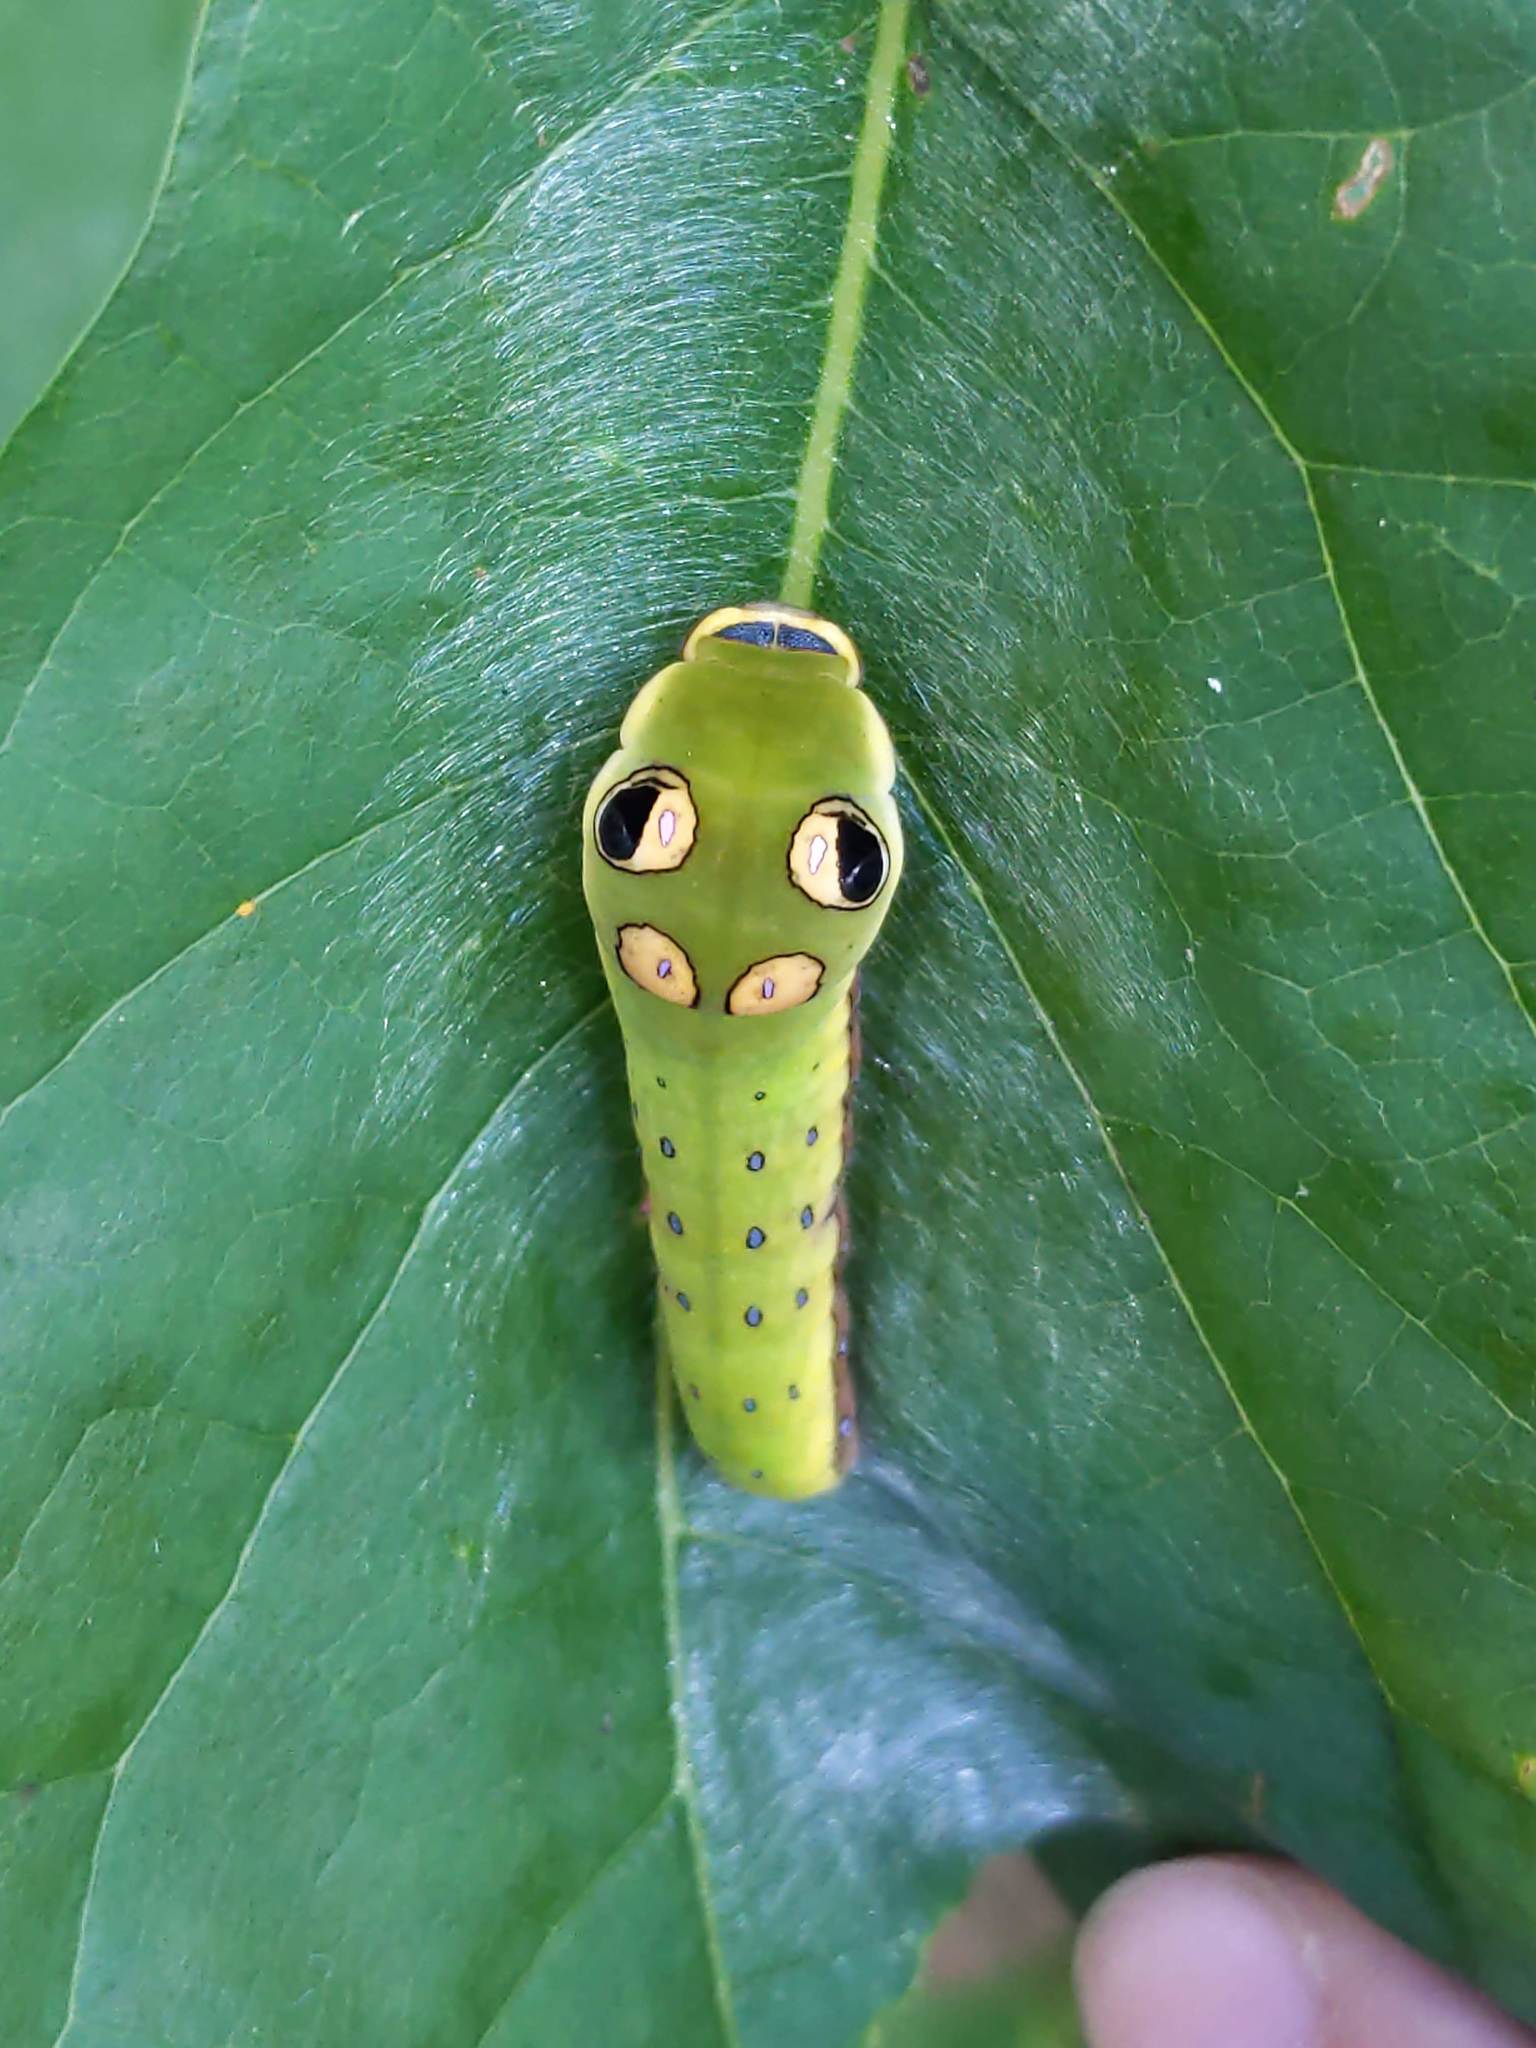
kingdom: Animalia
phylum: Arthropoda
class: Insecta
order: Lepidoptera
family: Papilionidae
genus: Papilio
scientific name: Papilio troilus
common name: Spicebush swallowtail
